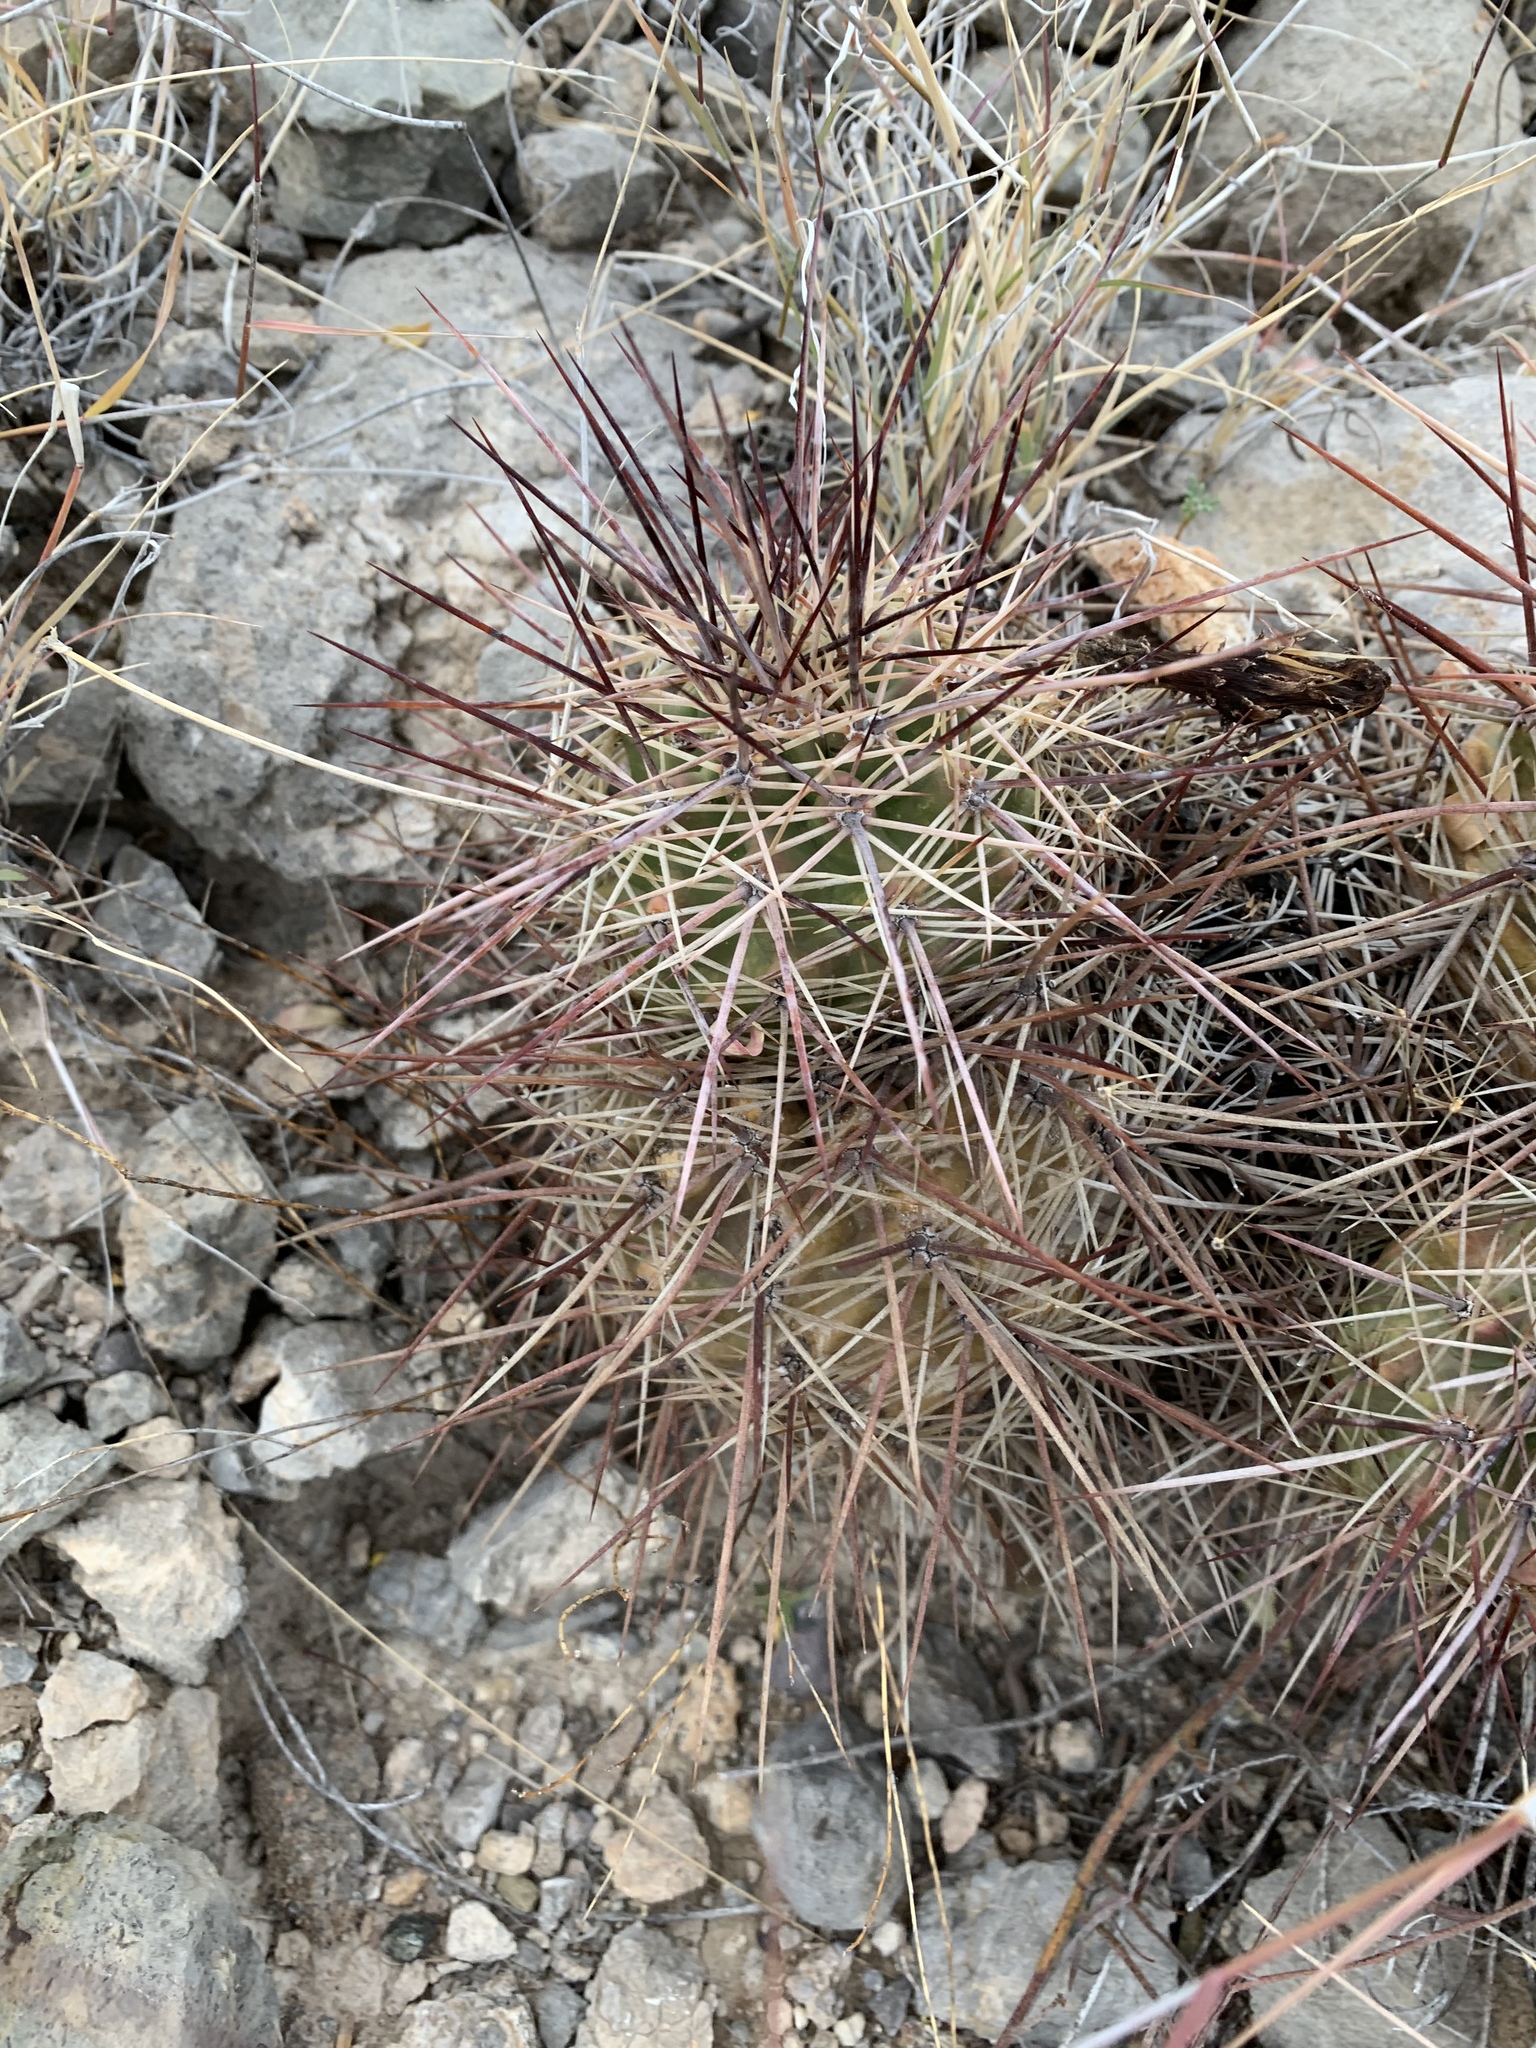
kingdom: Plantae
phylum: Tracheophyta
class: Magnoliopsida
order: Caryophyllales
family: Cactaceae
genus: Echinocereus
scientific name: Echinocereus coccineus
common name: Scarlet hedgehog cactus
